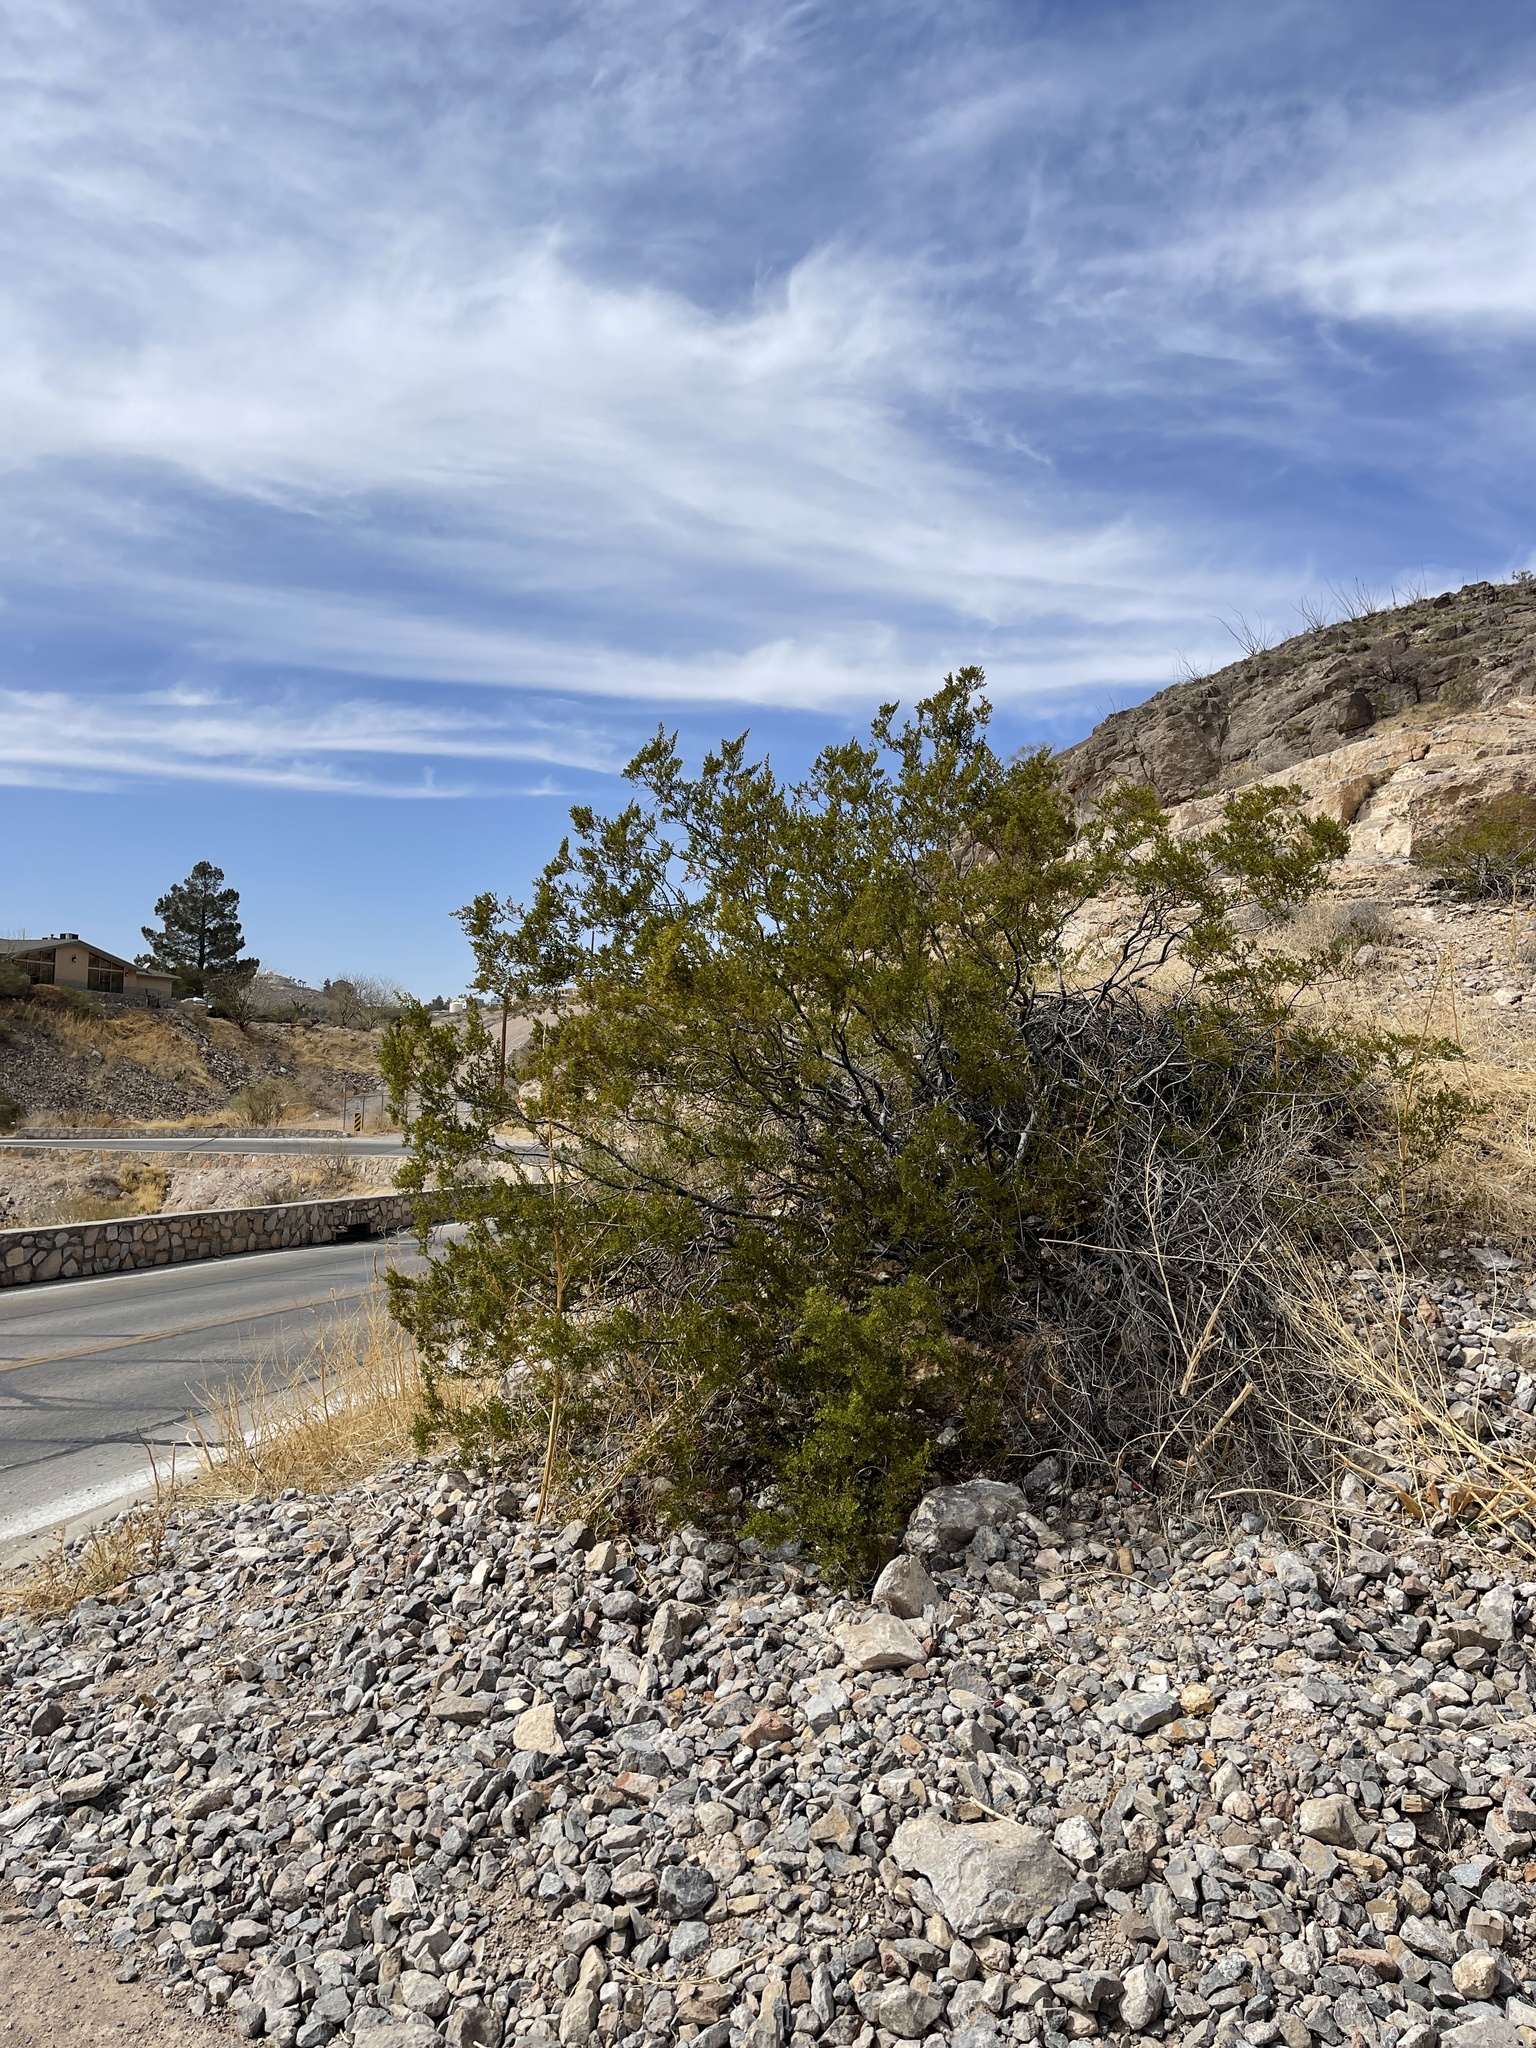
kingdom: Plantae
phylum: Tracheophyta
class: Magnoliopsida
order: Zygophyllales
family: Zygophyllaceae
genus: Larrea
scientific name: Larrea tridentata
